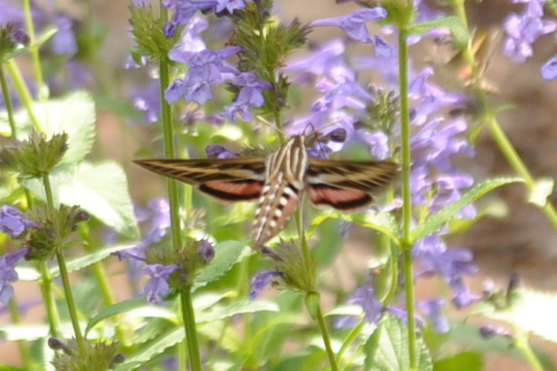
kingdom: Animalia
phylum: Arthropoda
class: Insecta
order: Lepidoptera
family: Sphingidae
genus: Hyles
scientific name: Hyles lineata
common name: White-lined sphinx
